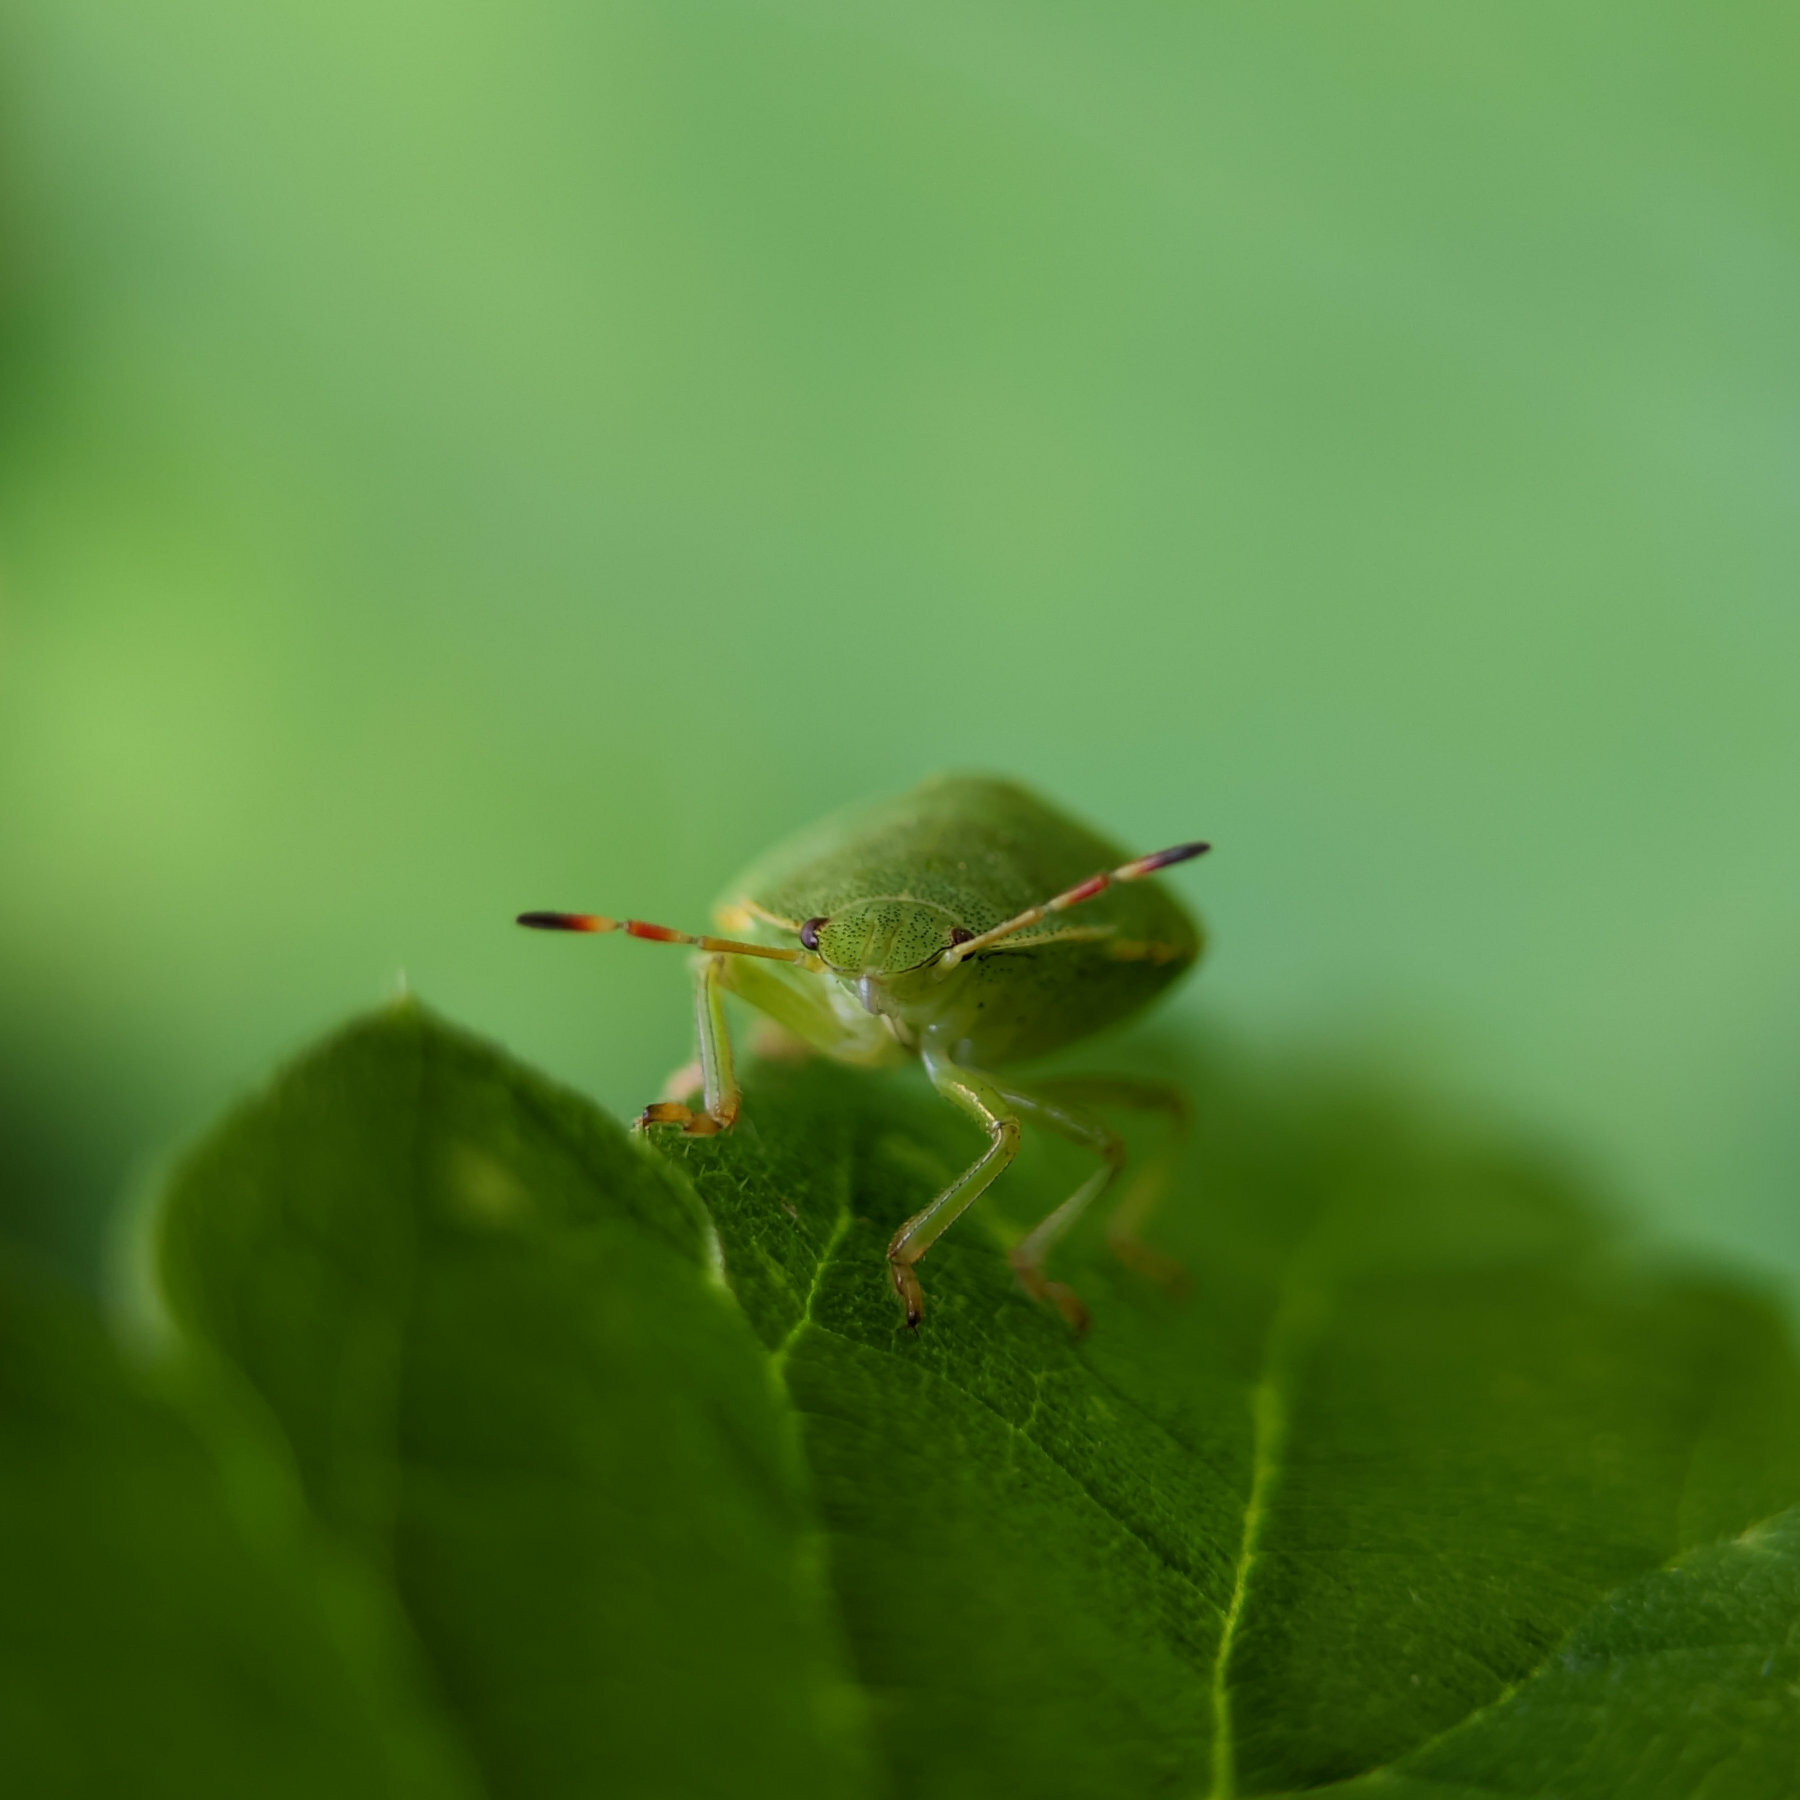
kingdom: Animalia
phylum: Arthropoda
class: Insecta
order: Hemiptera
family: Pentatomidae
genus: Palomena
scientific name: Palomena prasina
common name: Green shieldbug
